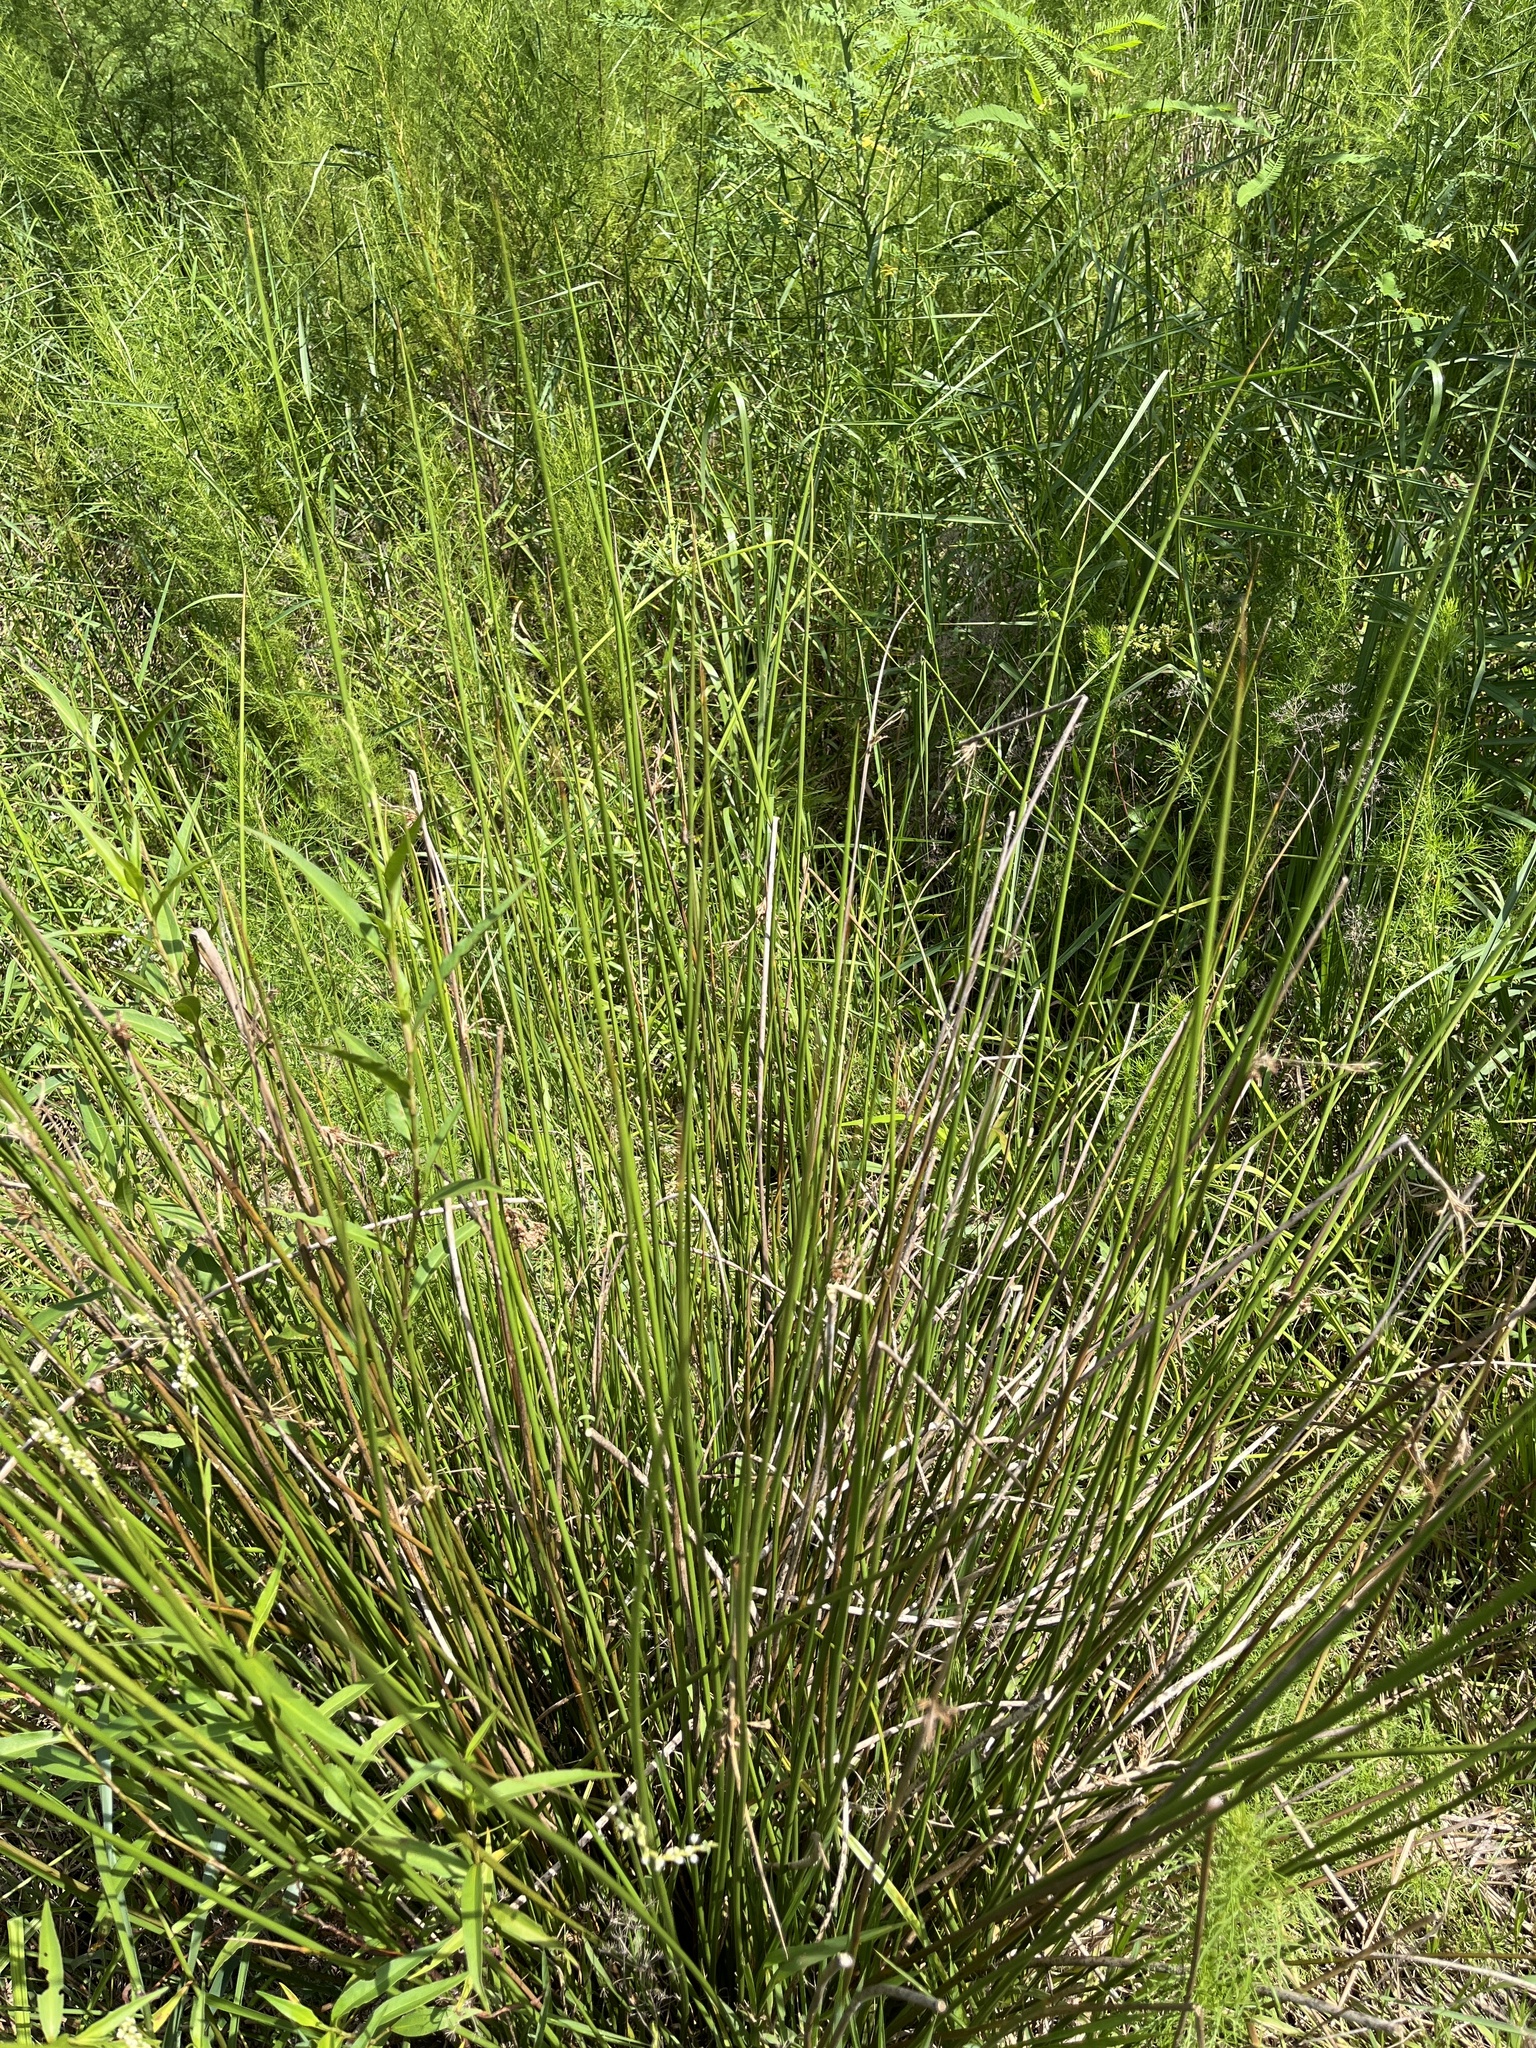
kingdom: Plantae
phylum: Tracheophyta
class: Liliopsida
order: Poales
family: Juncaceae
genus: Juncus
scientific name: Juncus effusus
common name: Soft rush
